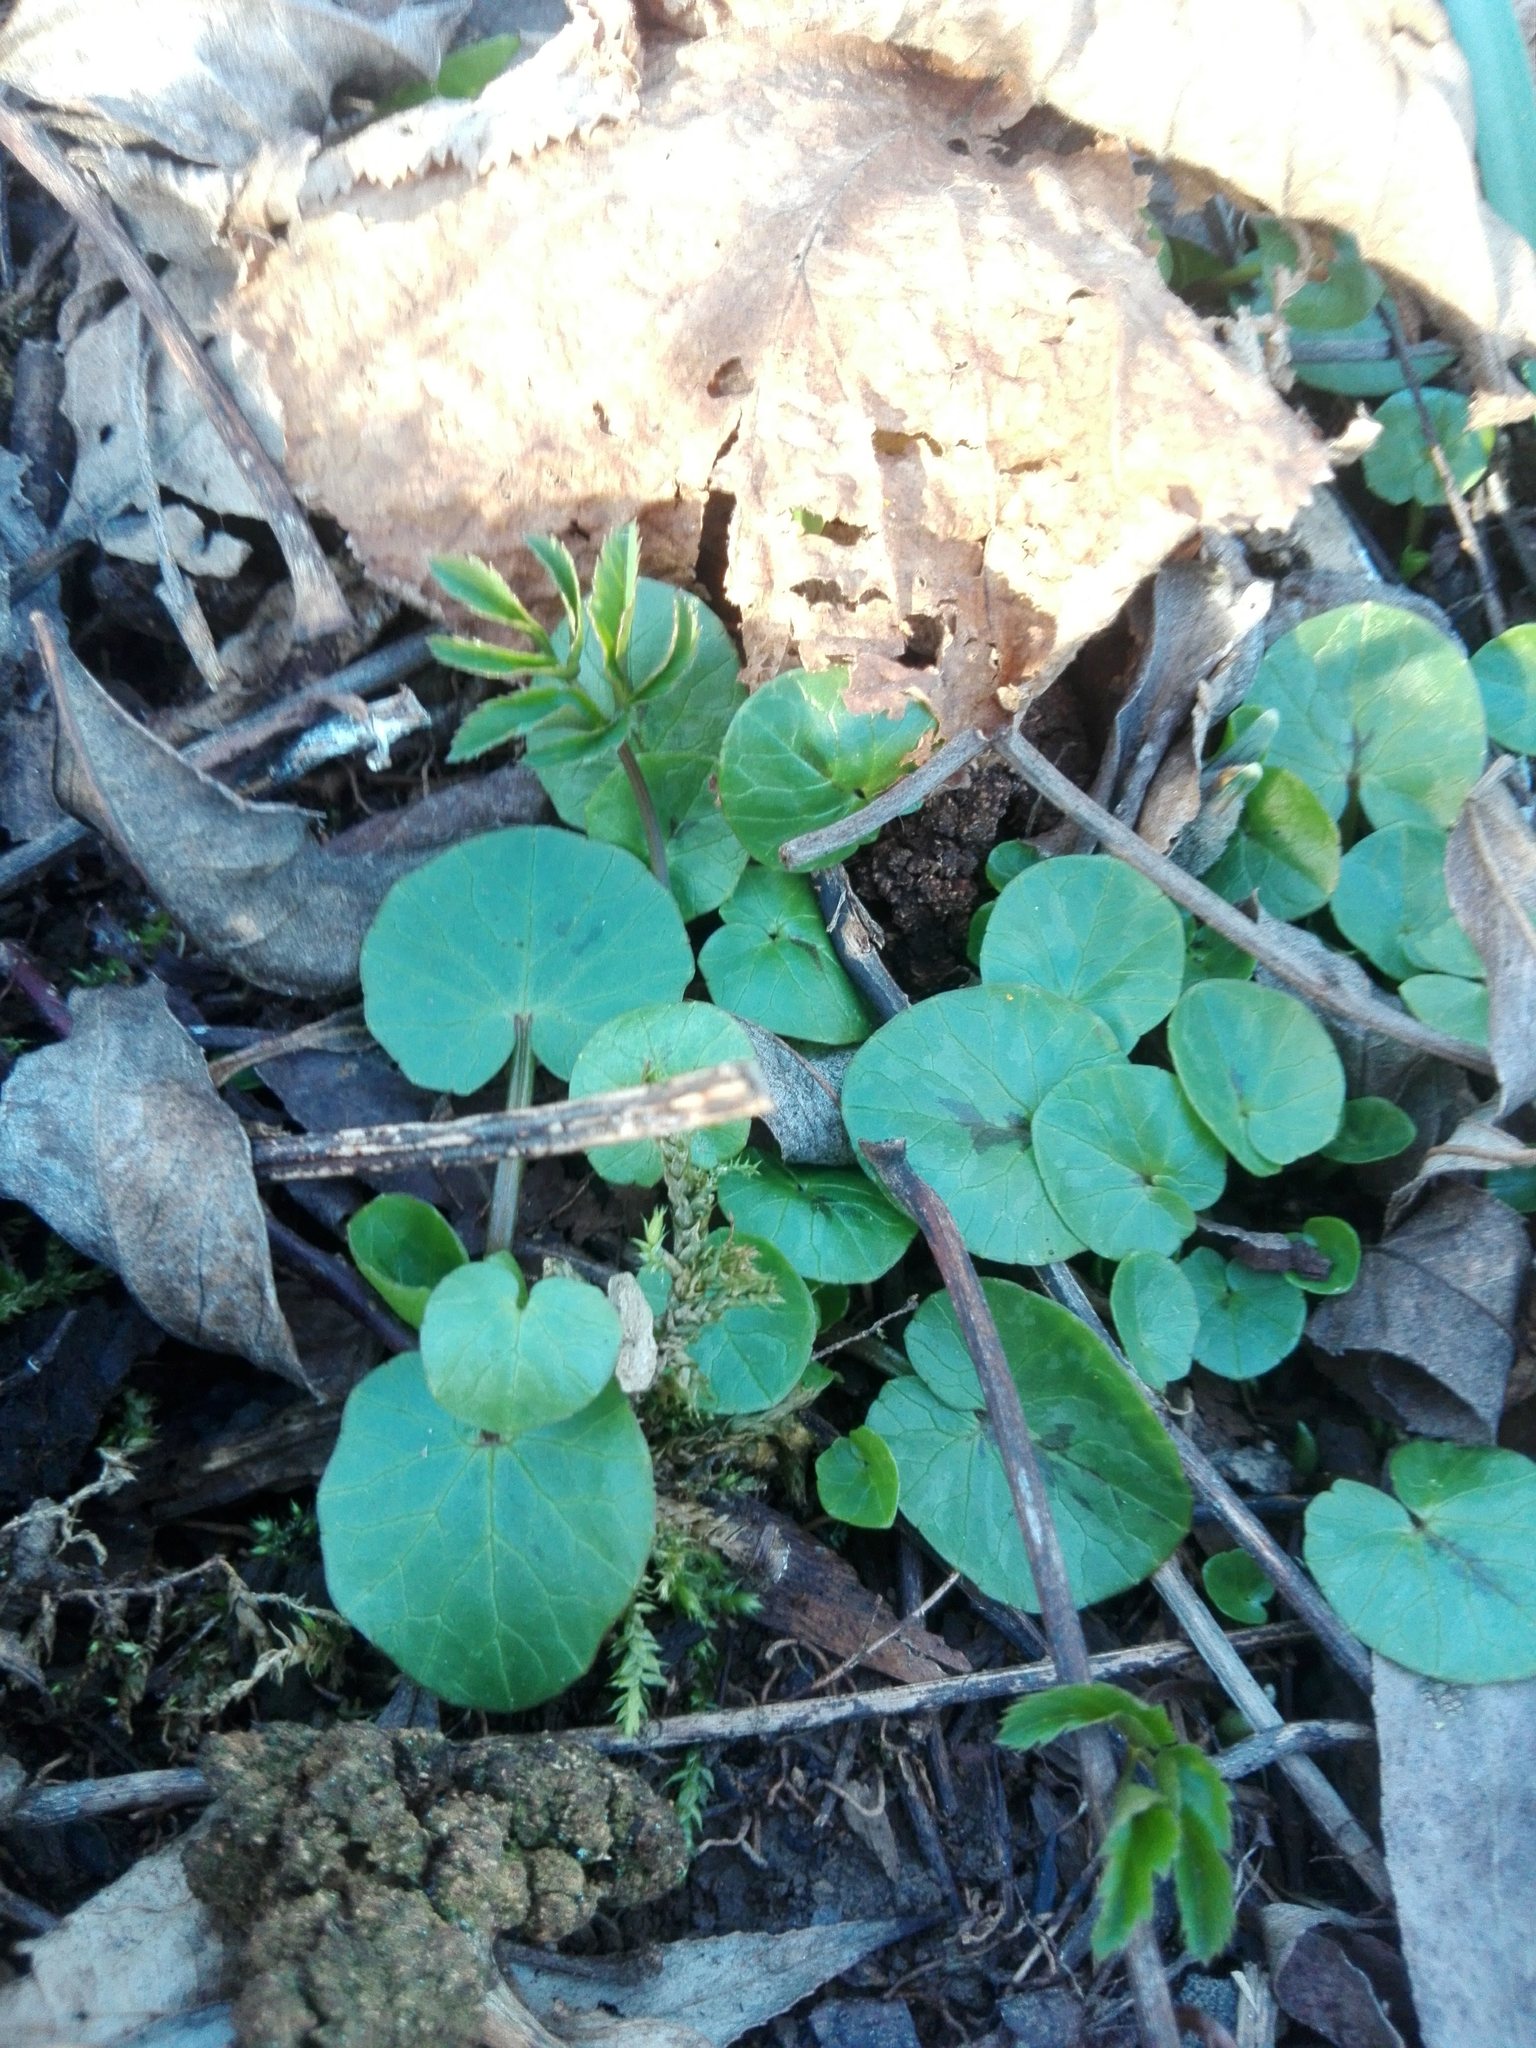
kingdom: Plantae
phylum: Tracheophyta
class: Magnoliopsida
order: Ranunculales
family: Ranunculaceae
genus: Ficaria
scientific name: Ficaria verna
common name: Lesser celandine
